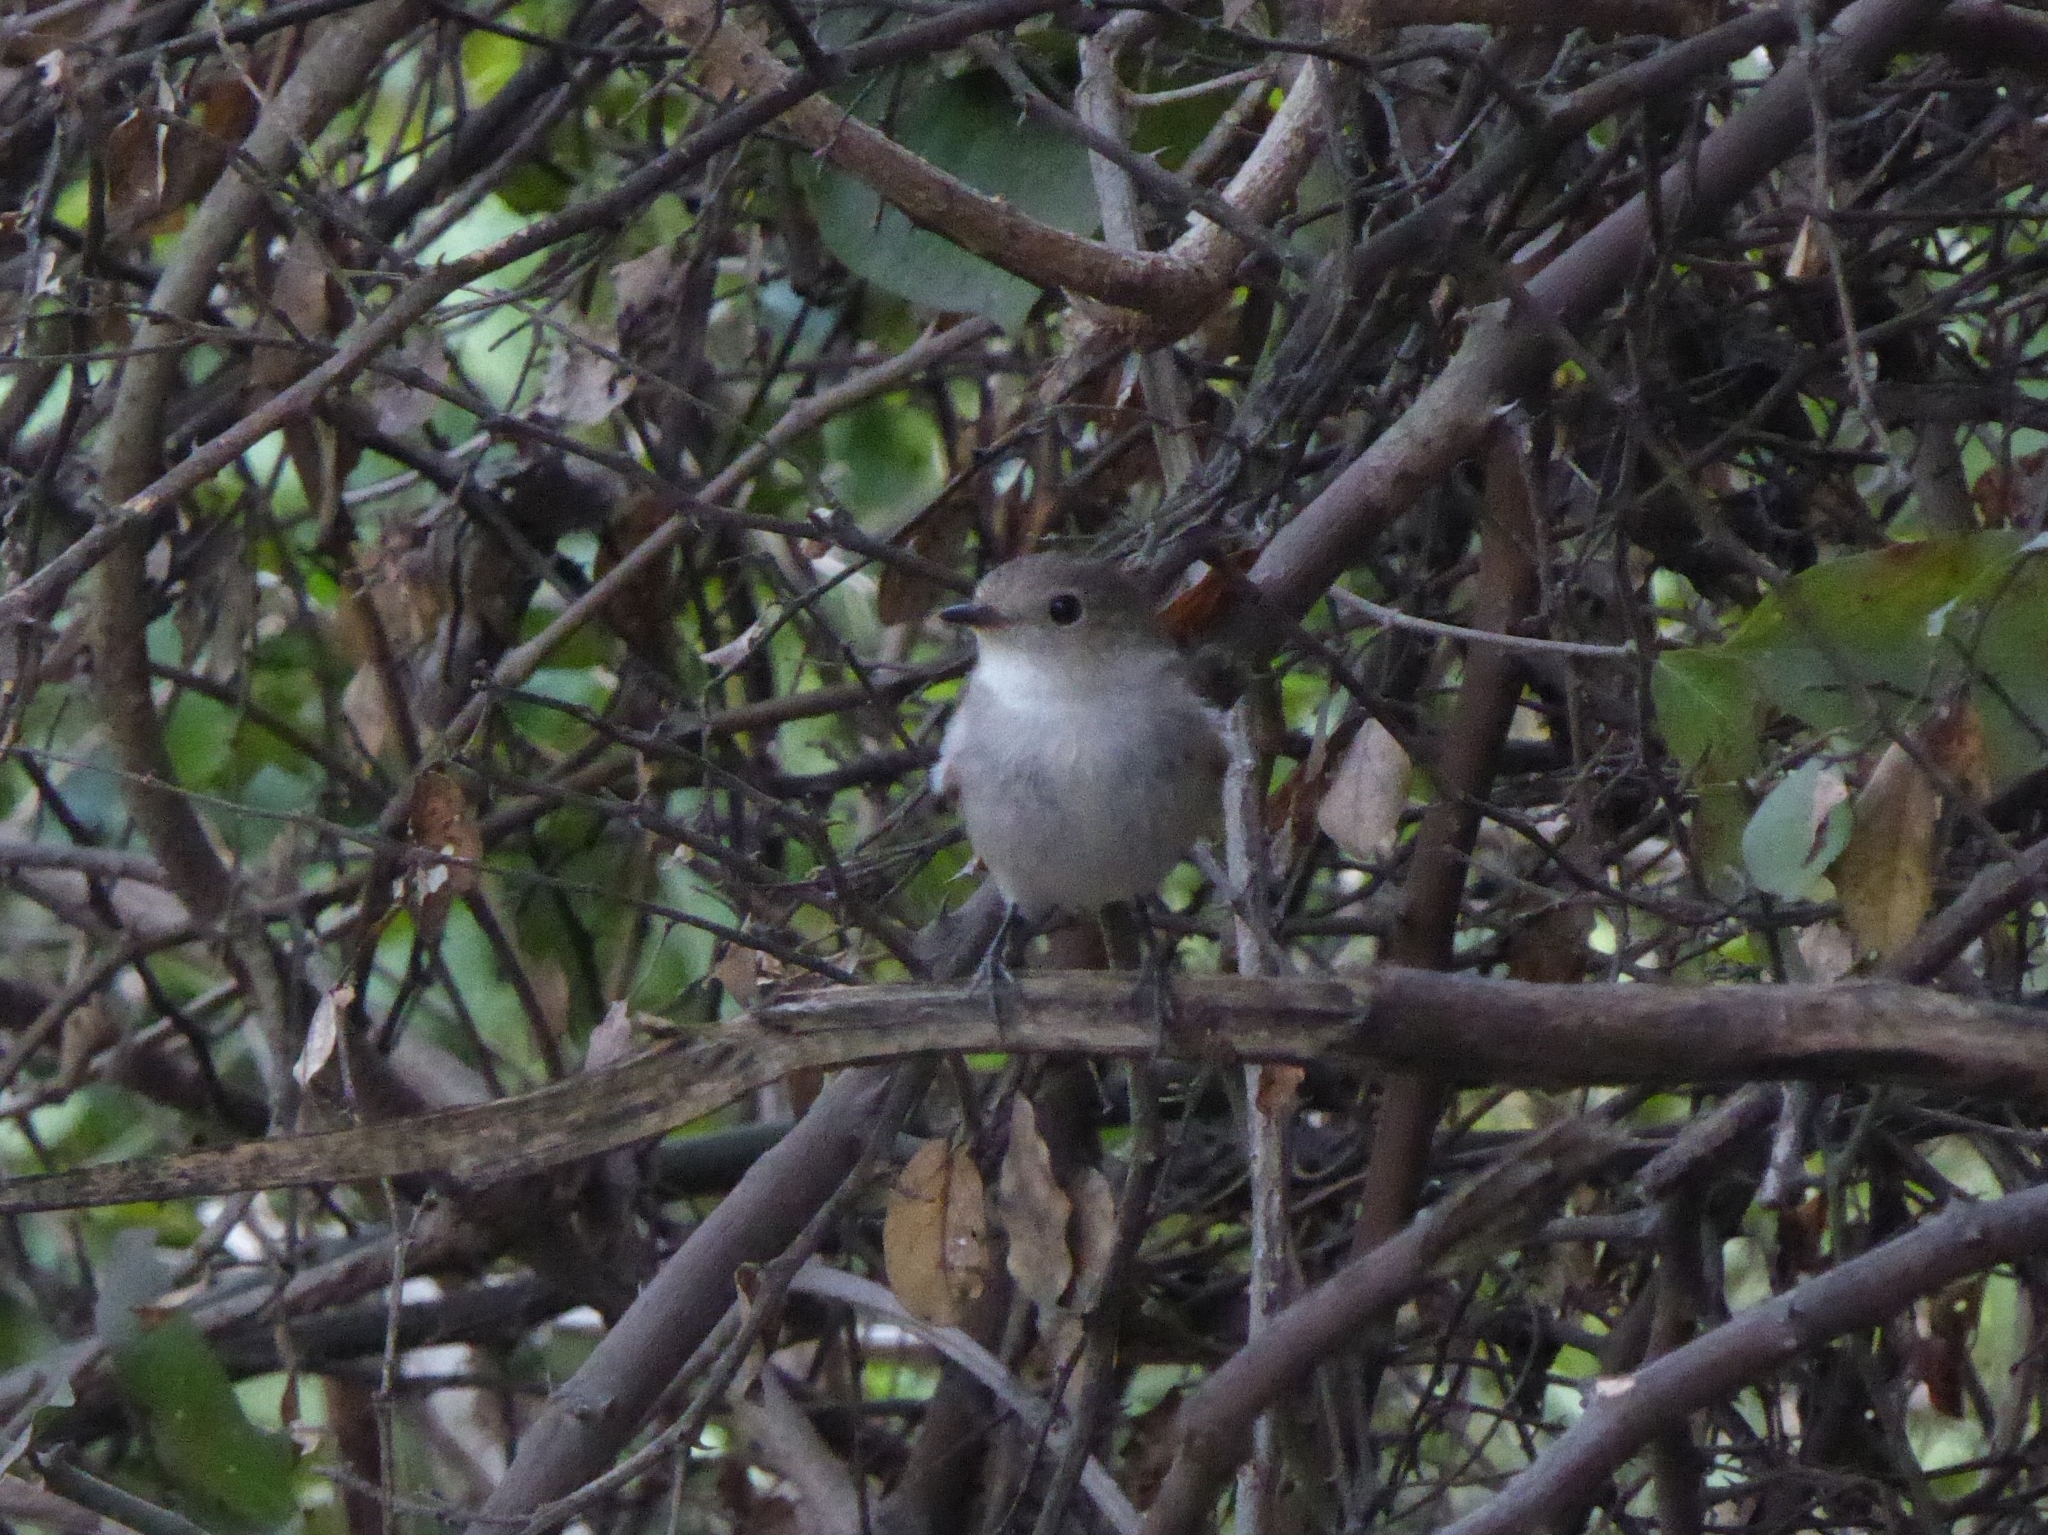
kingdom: Animalia
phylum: Chordata
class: Aves
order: Passeriformes
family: Muscicapidae
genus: Ficedula
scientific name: Ficedula albicilla
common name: Taiga flycatcher
